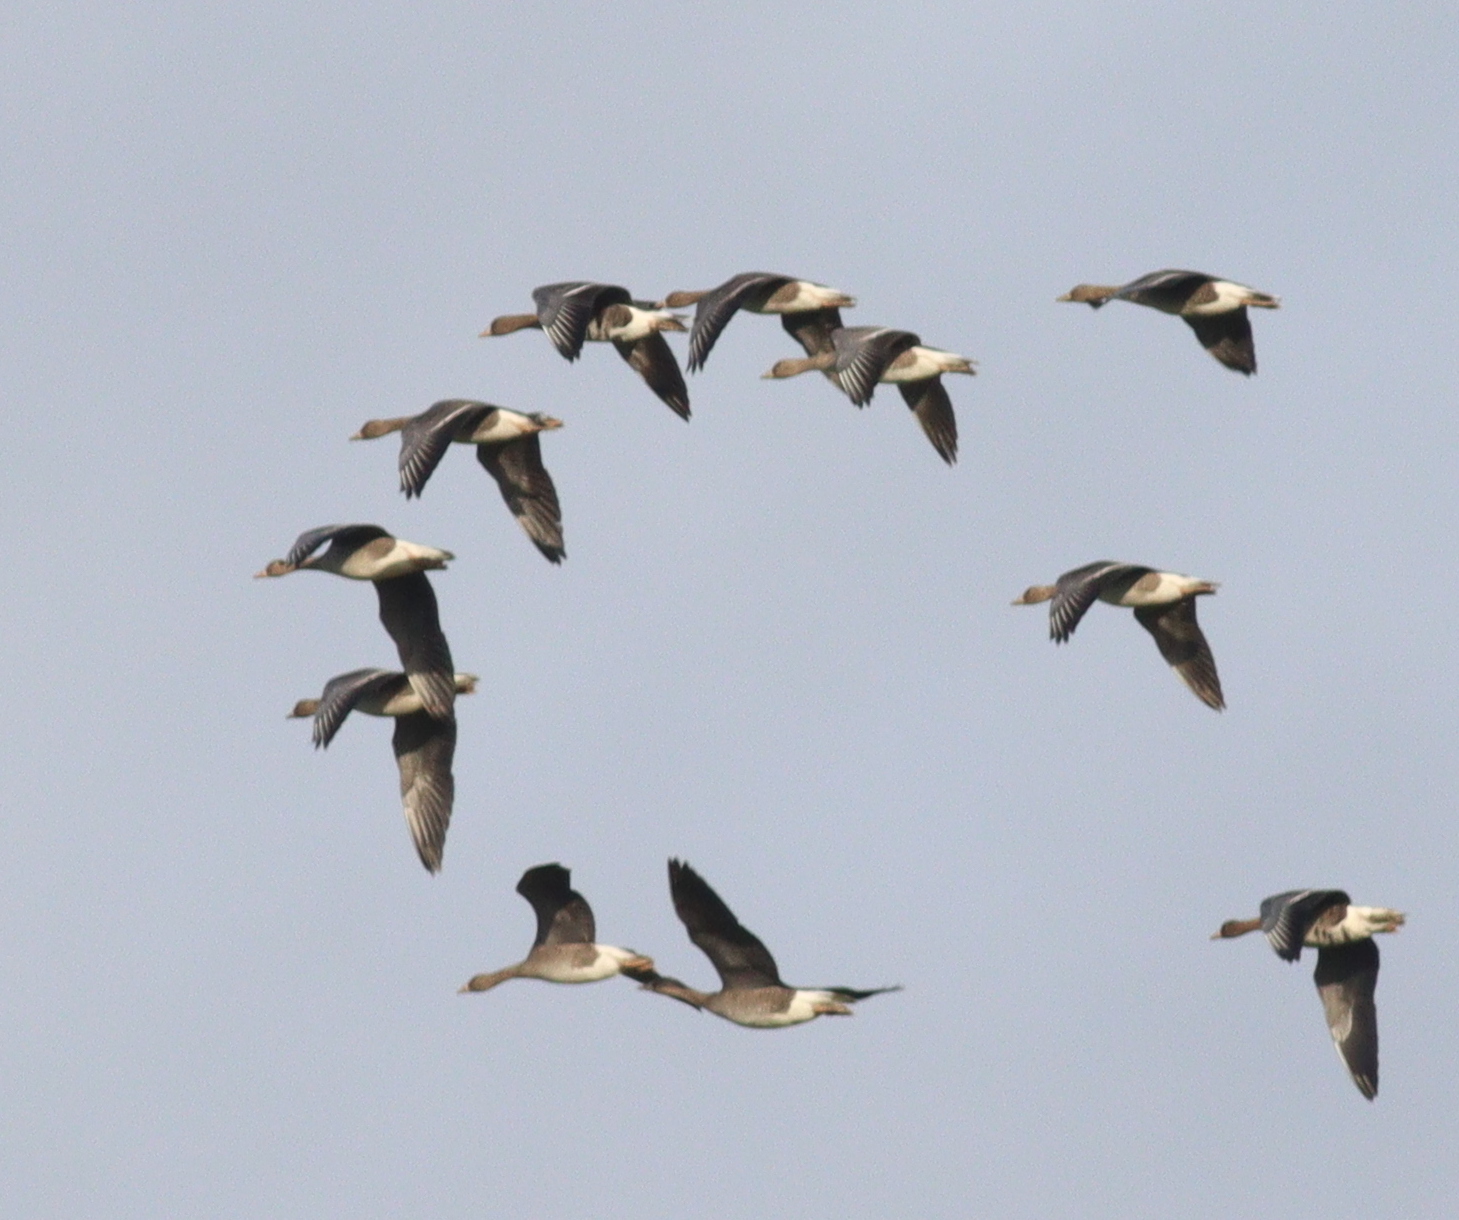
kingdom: Animalia
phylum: Chordata
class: Aves
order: Anseriformes
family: Anatidae
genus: Anser
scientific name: Anser albifrons
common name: Greater white-fronted goose
